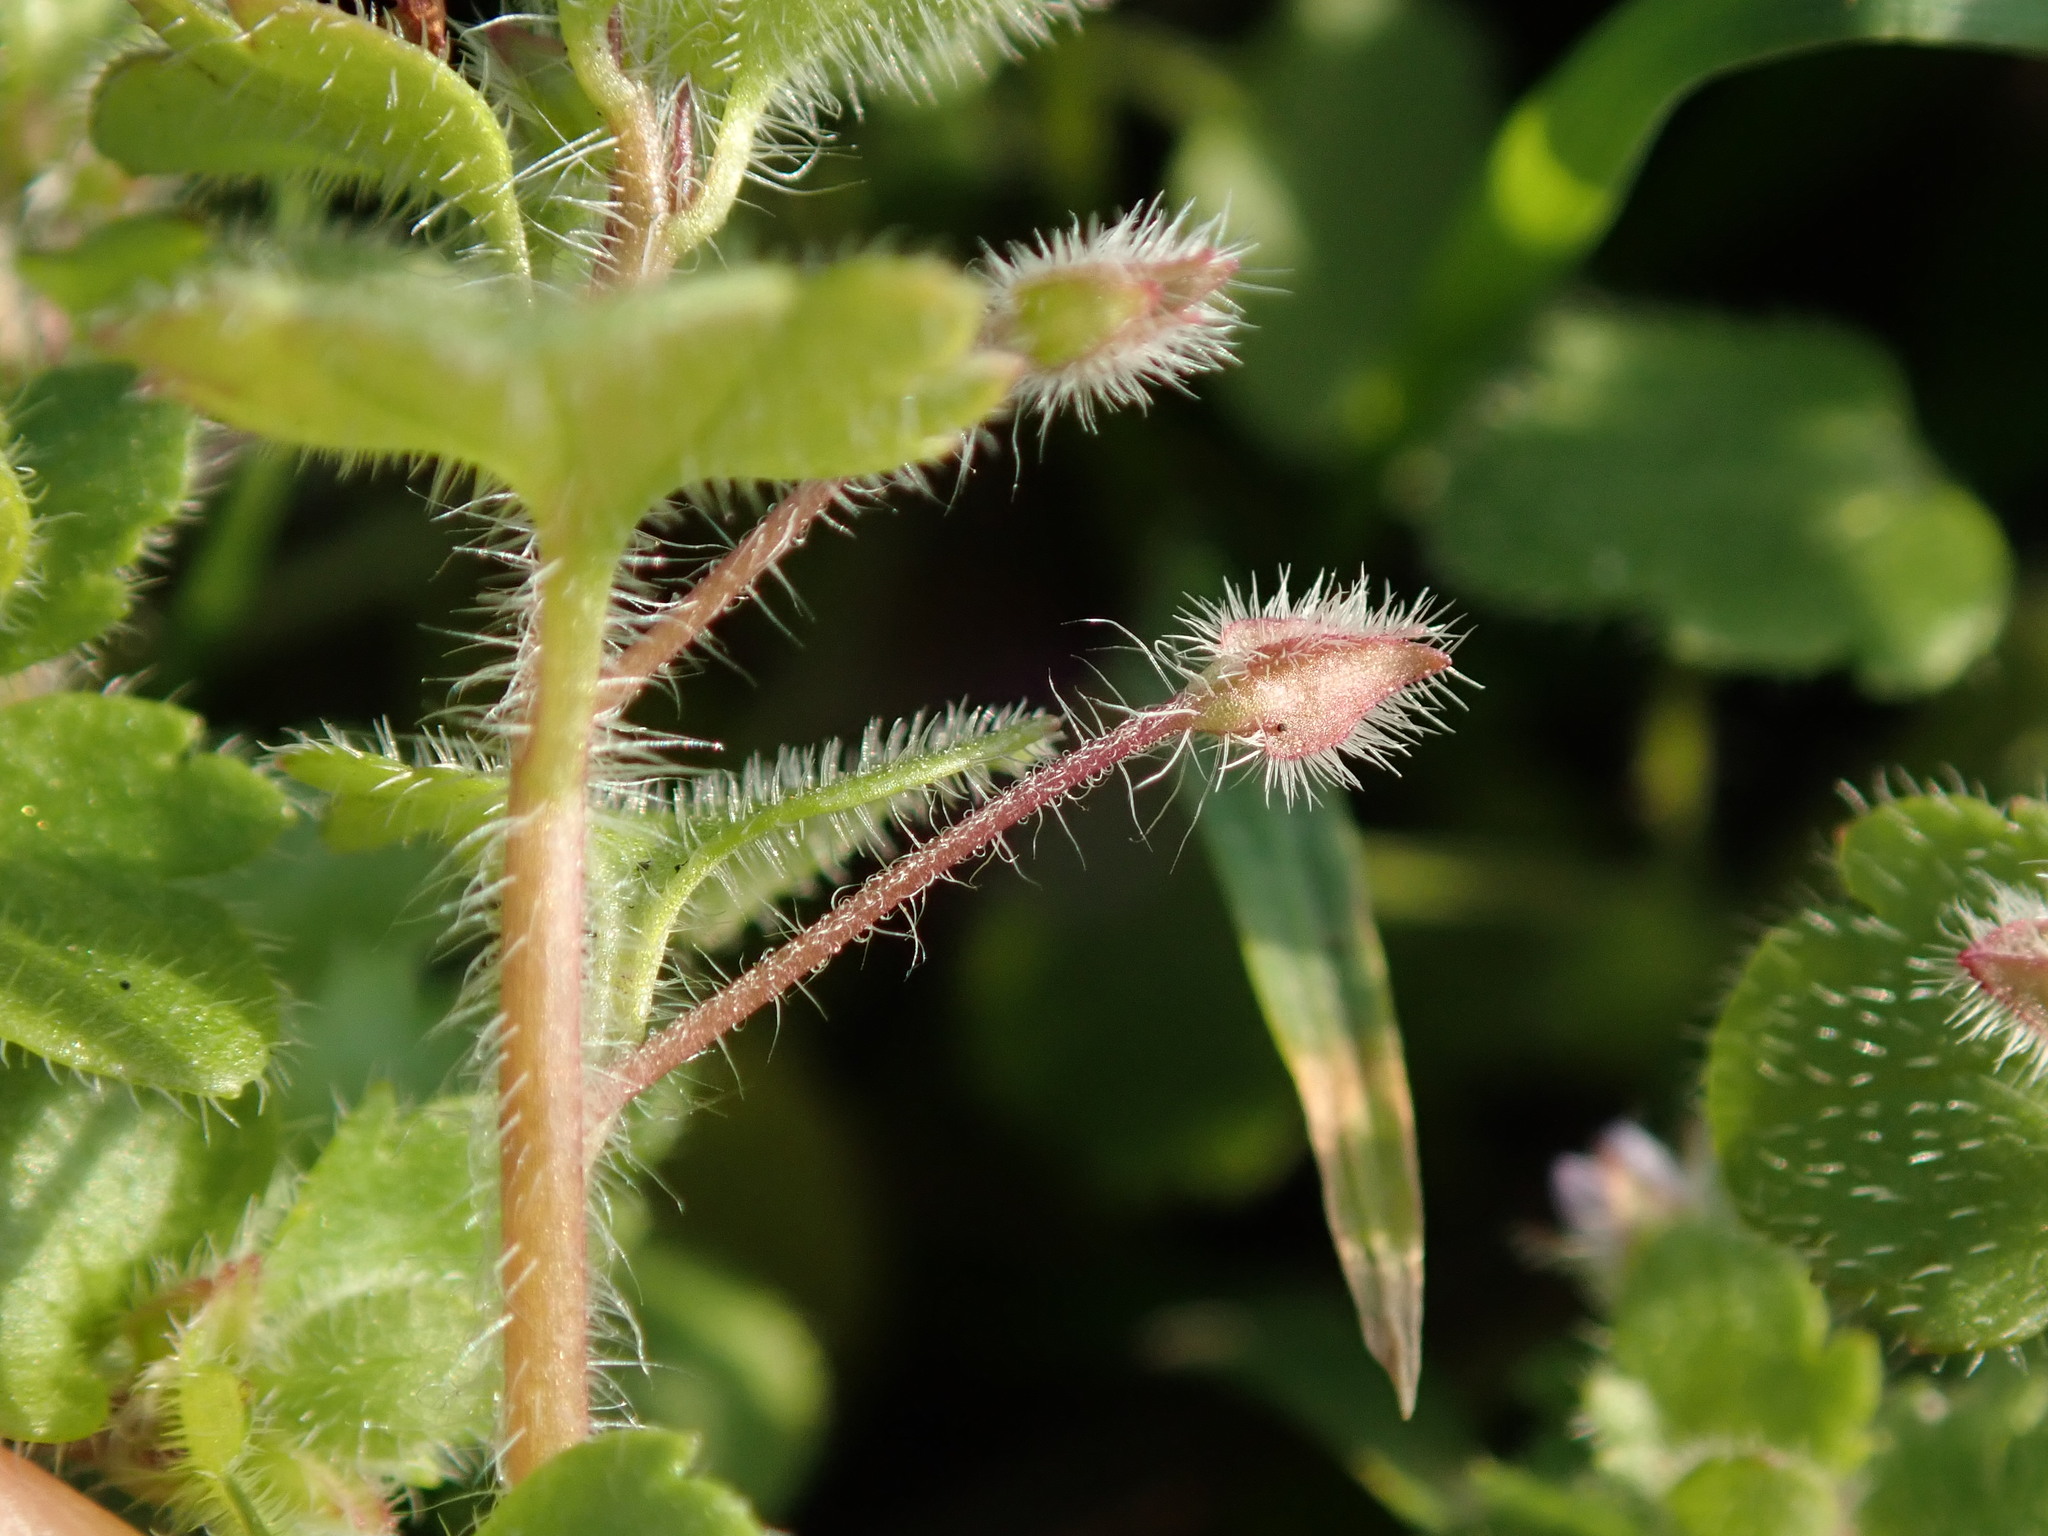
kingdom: Plantae
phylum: Tracheophyta
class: Magnoliopsida
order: Lamiales
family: Plantaginaceae
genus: Veronica
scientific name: Veronica sublobata
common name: False ivy-leaved speedwell
